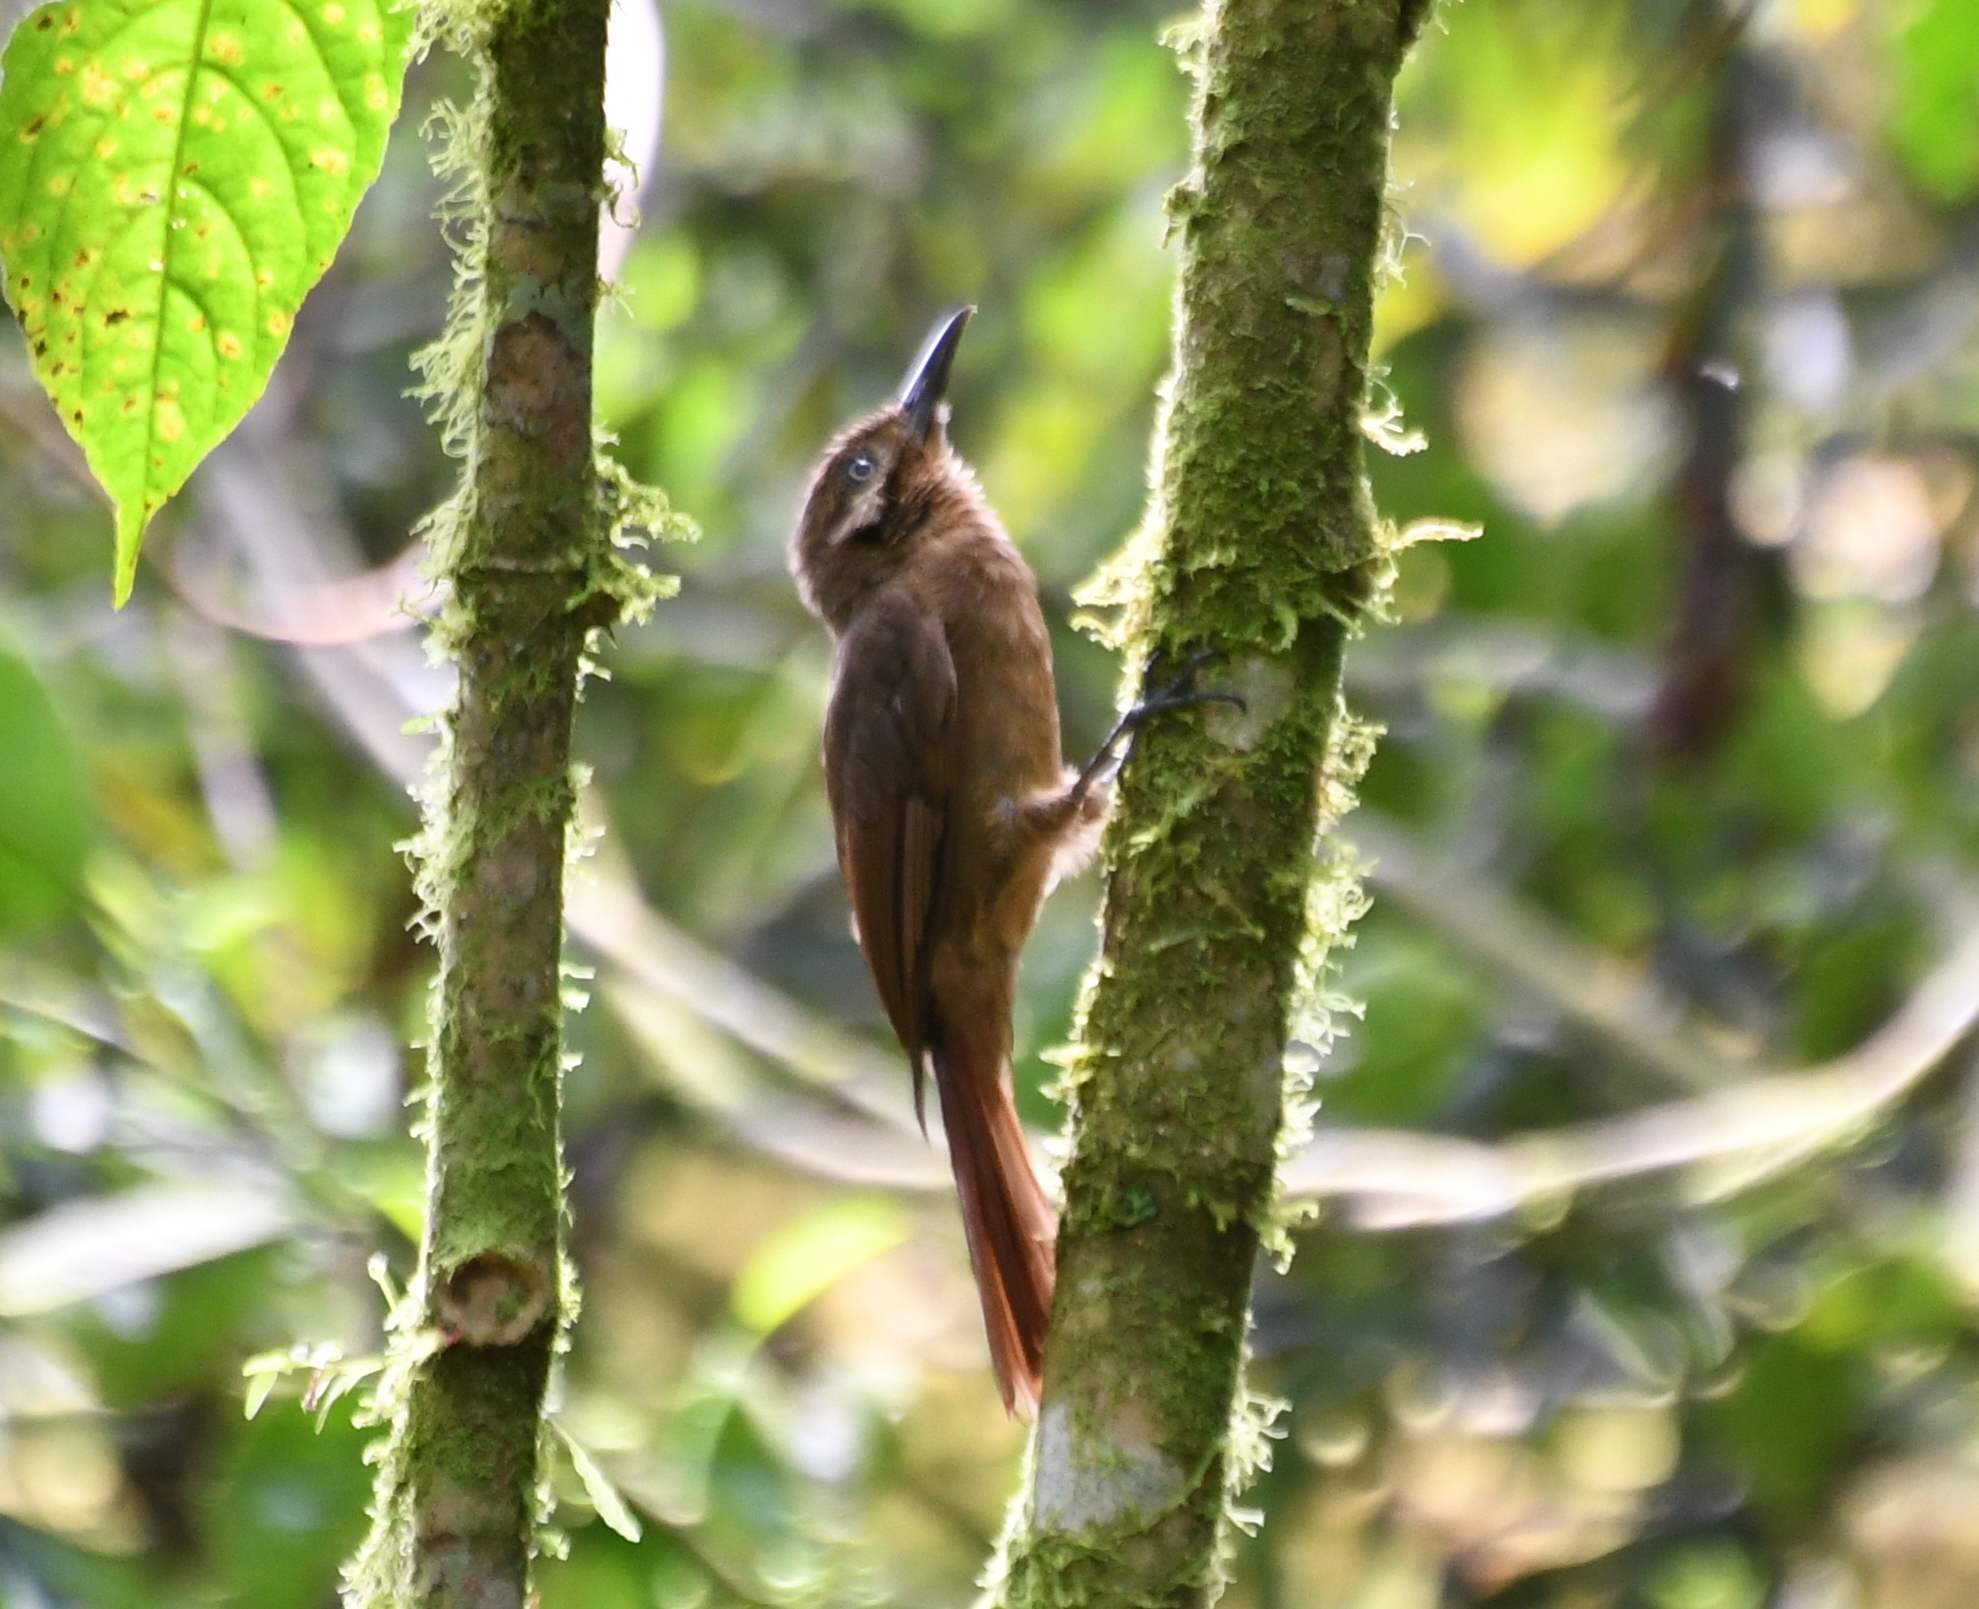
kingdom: Animalia
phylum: Chordata
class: Aves
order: Passeriformes
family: Furnariidae
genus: Dendrocincla
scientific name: Dendrocincla fuliginosa
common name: Plain-brown woodcreeper
